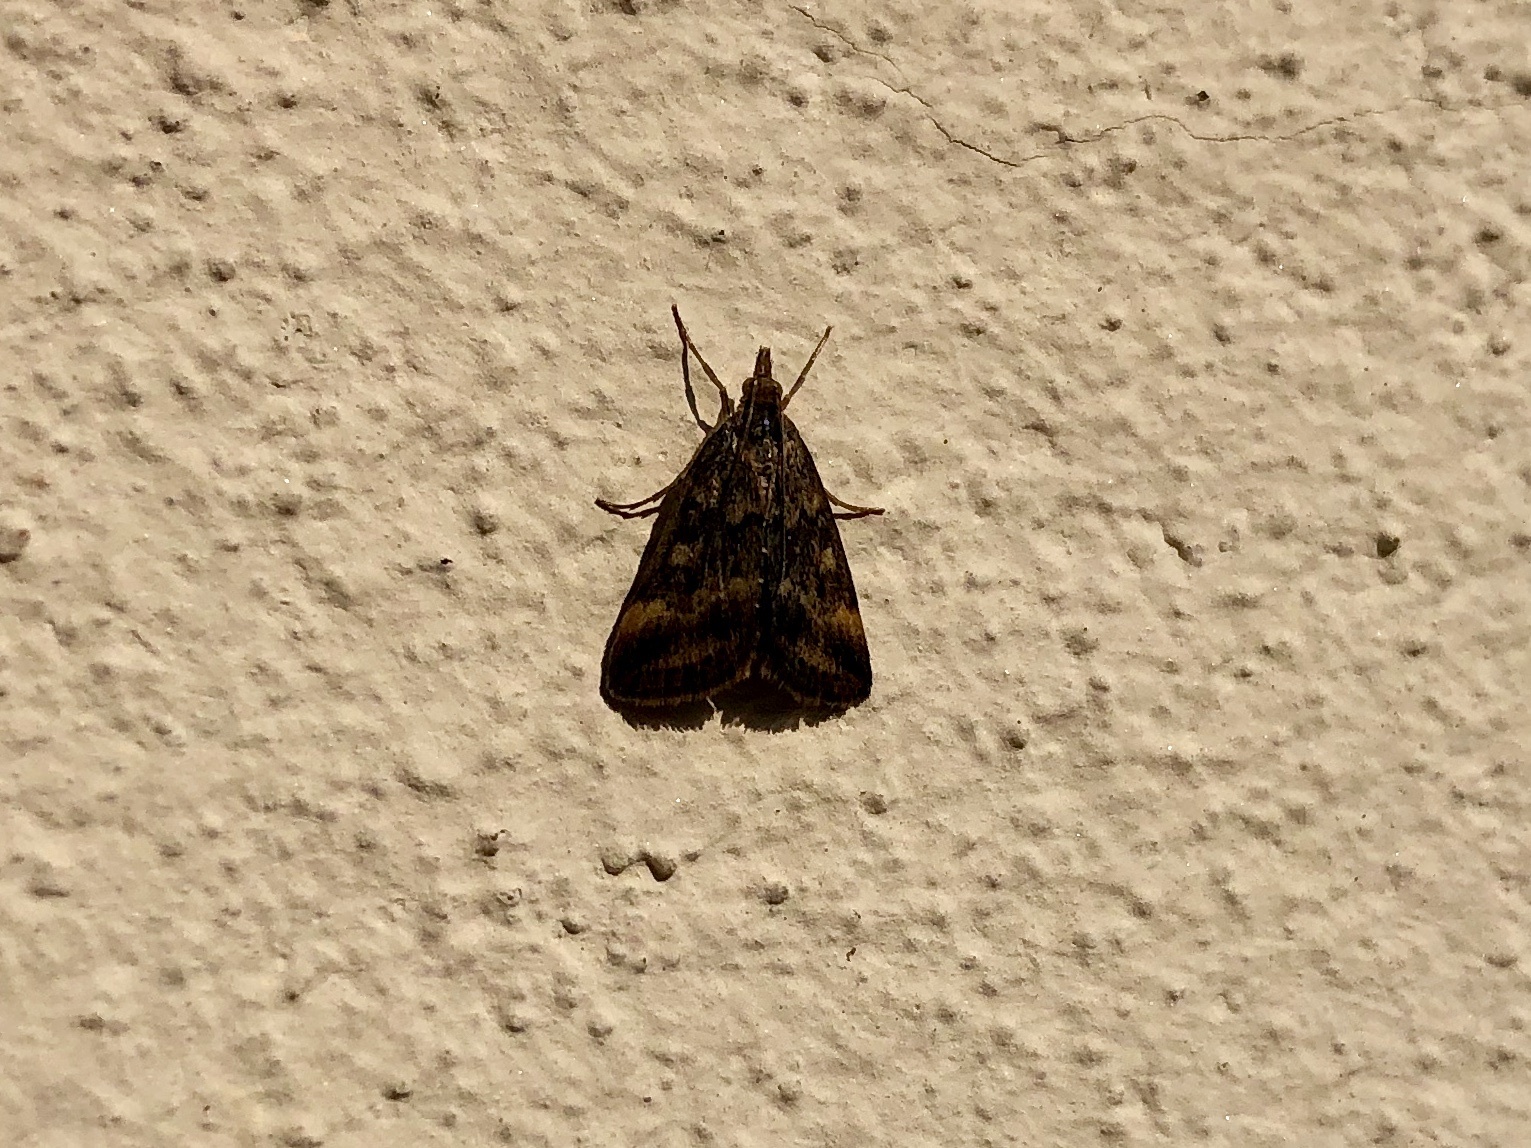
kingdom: Animalia
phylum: Arthropoda
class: Insecta
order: Lepidoptera
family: Crambidae
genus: Pyrausta
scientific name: Pyrausta despicata
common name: Straw-barred pearl
